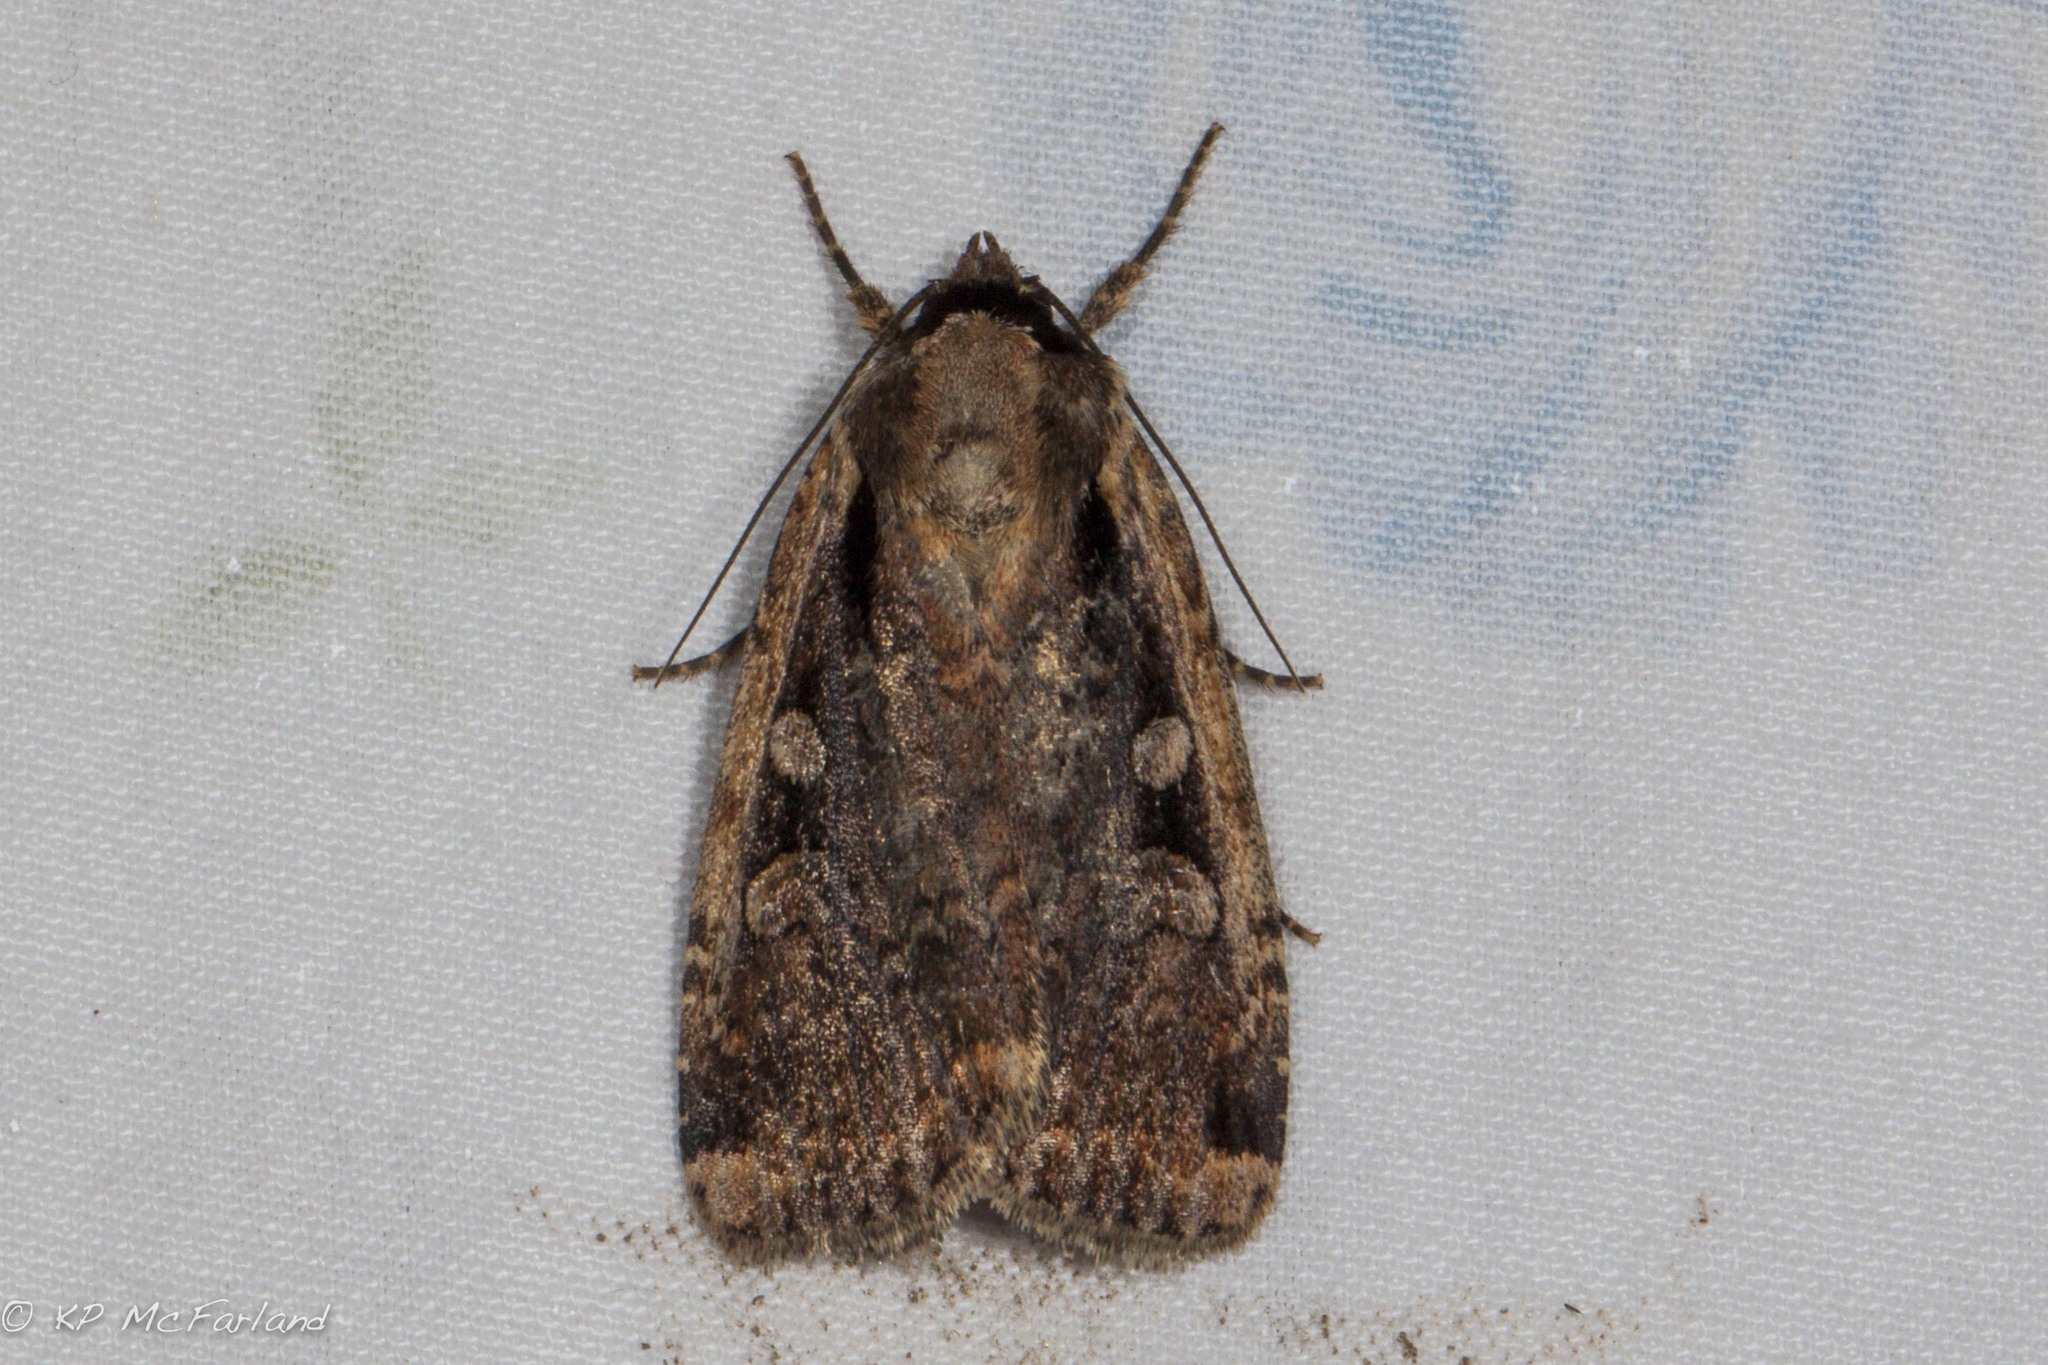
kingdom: Animalia
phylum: Arthropoda
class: Insecta
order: Lepidoptera
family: Noctuidae
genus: Eueretagrotis
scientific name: Eueretagrotis sigmoides
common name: Sigmoid dart
